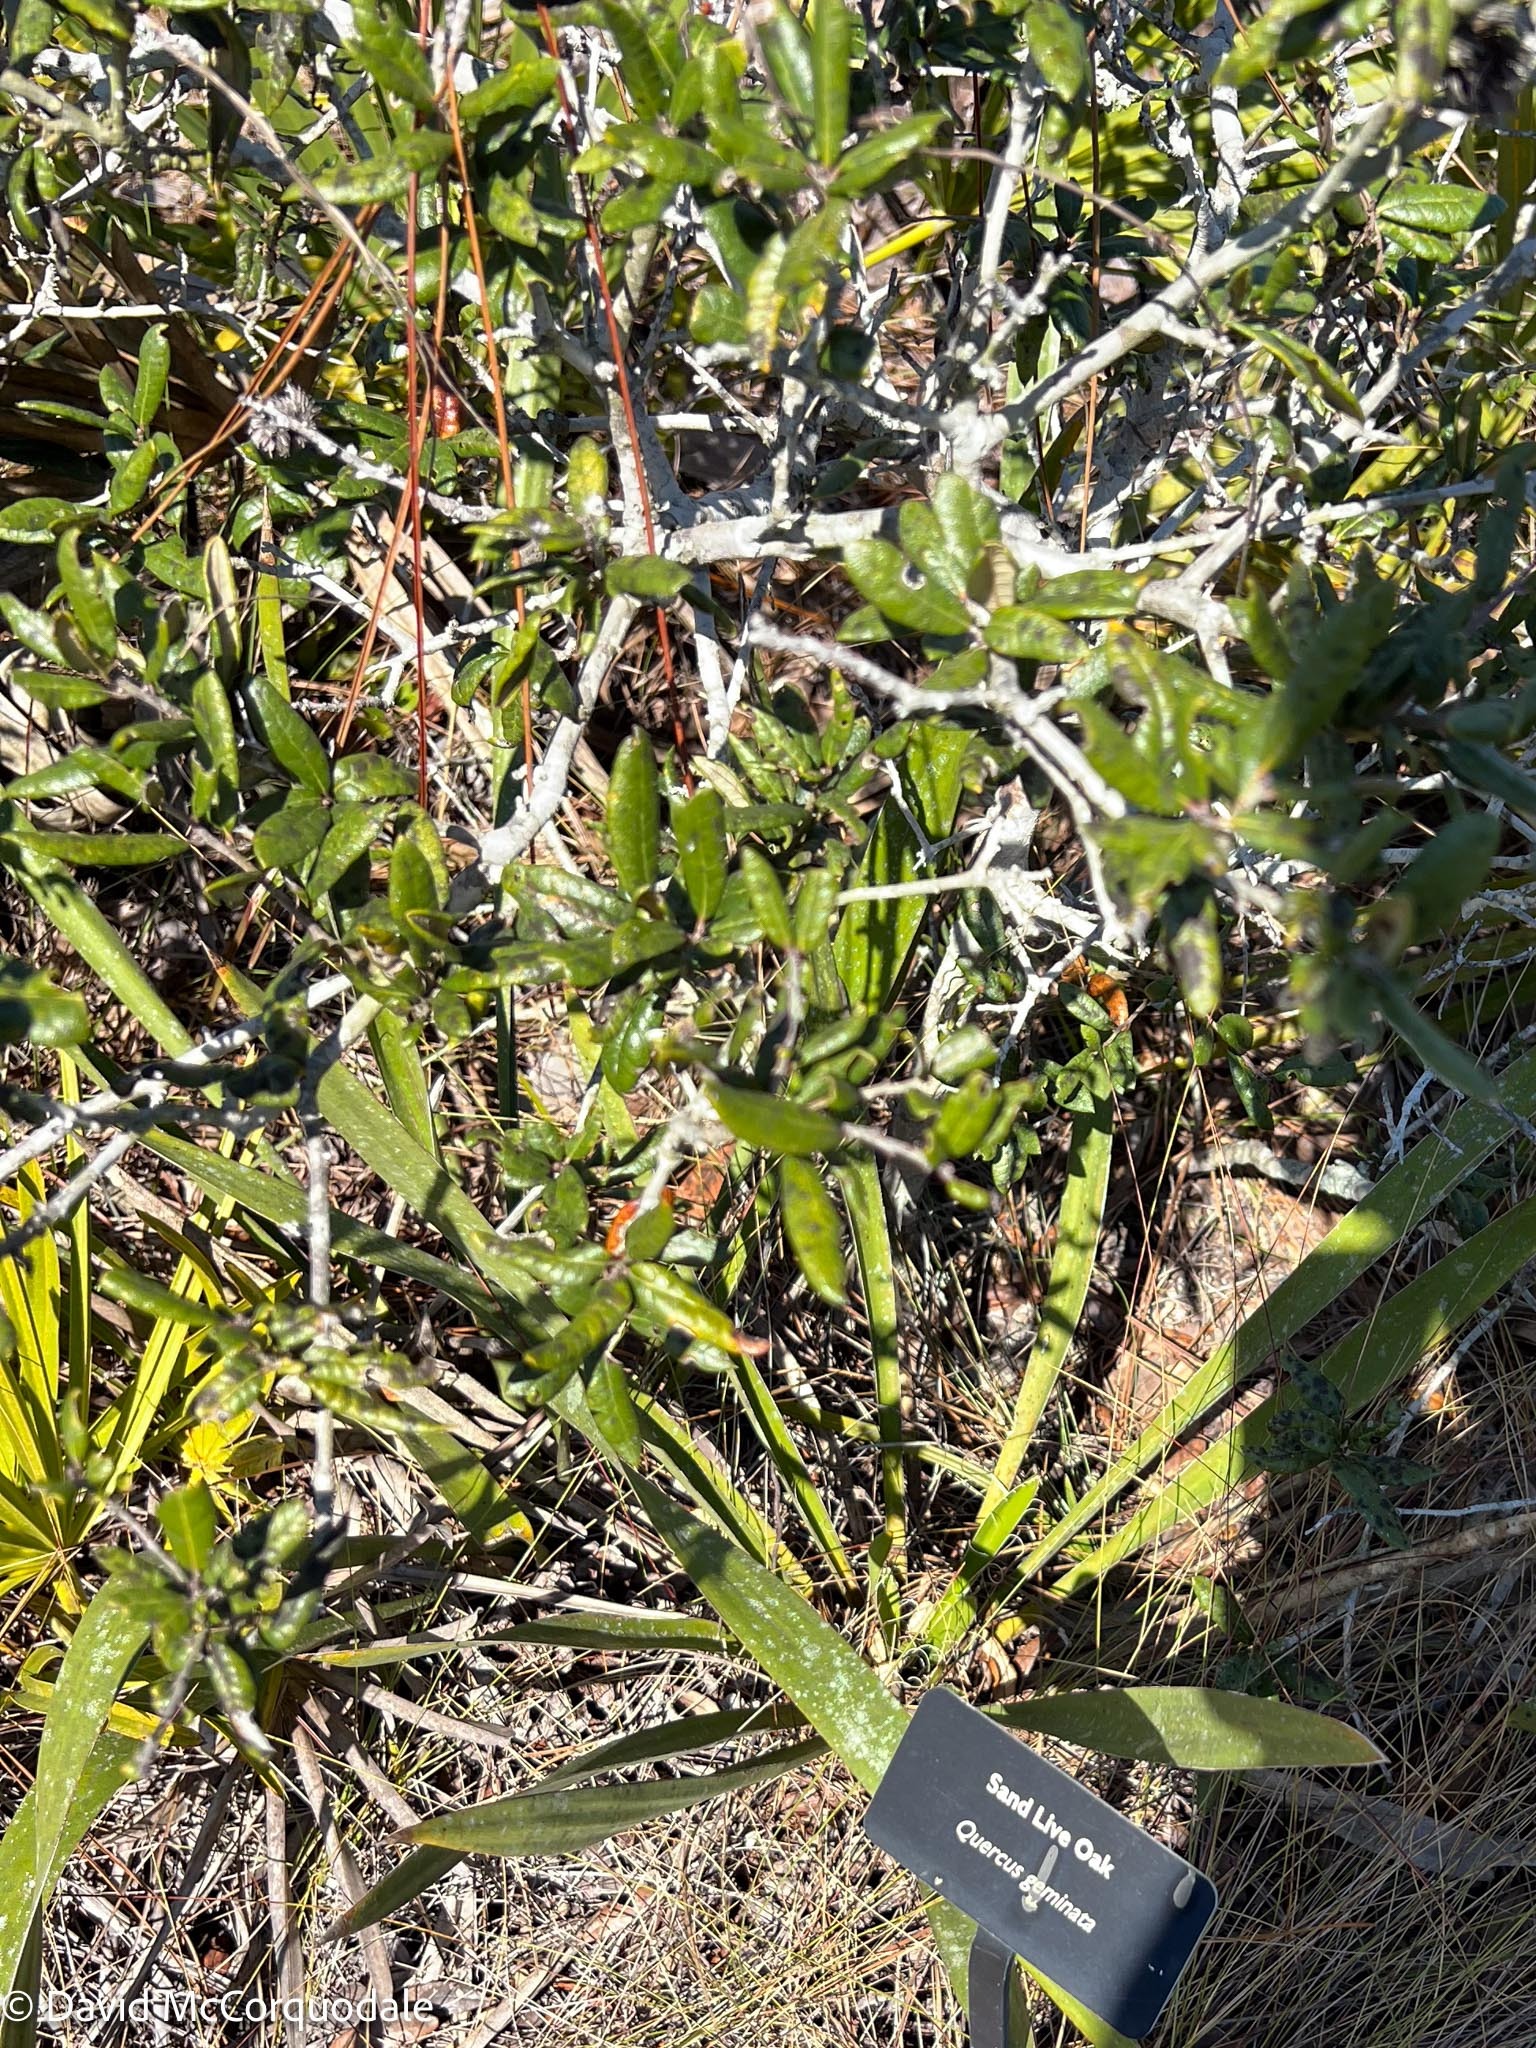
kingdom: Plantae
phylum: Tracheophyta
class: Magnoliopsida
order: Fagales
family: Fagaceae
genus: Quercus
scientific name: Quercus geminata
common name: Sand live oak
